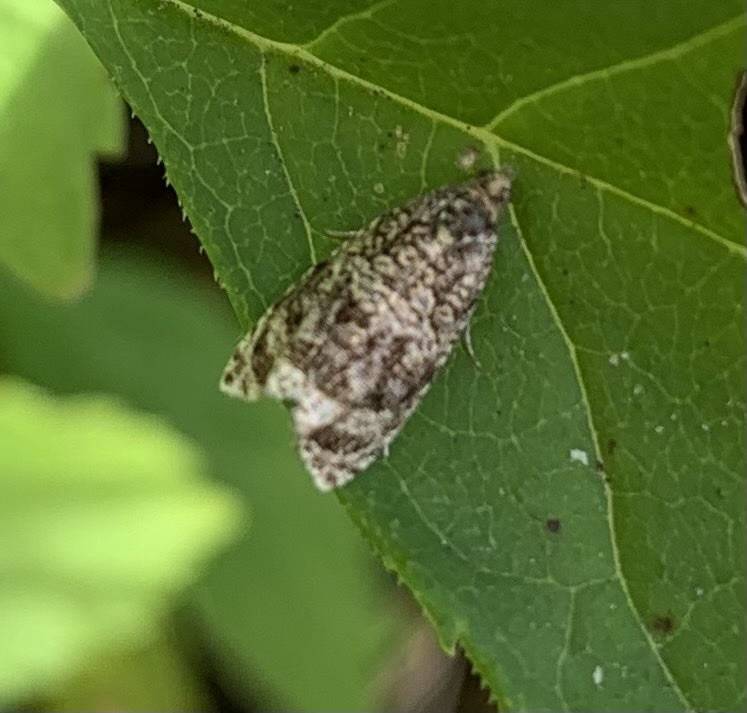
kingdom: Animalia
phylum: Arthropoda
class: Insecta
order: Lepidoptera
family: Tortricidae
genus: Syricoris
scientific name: Syricoris lacunana
